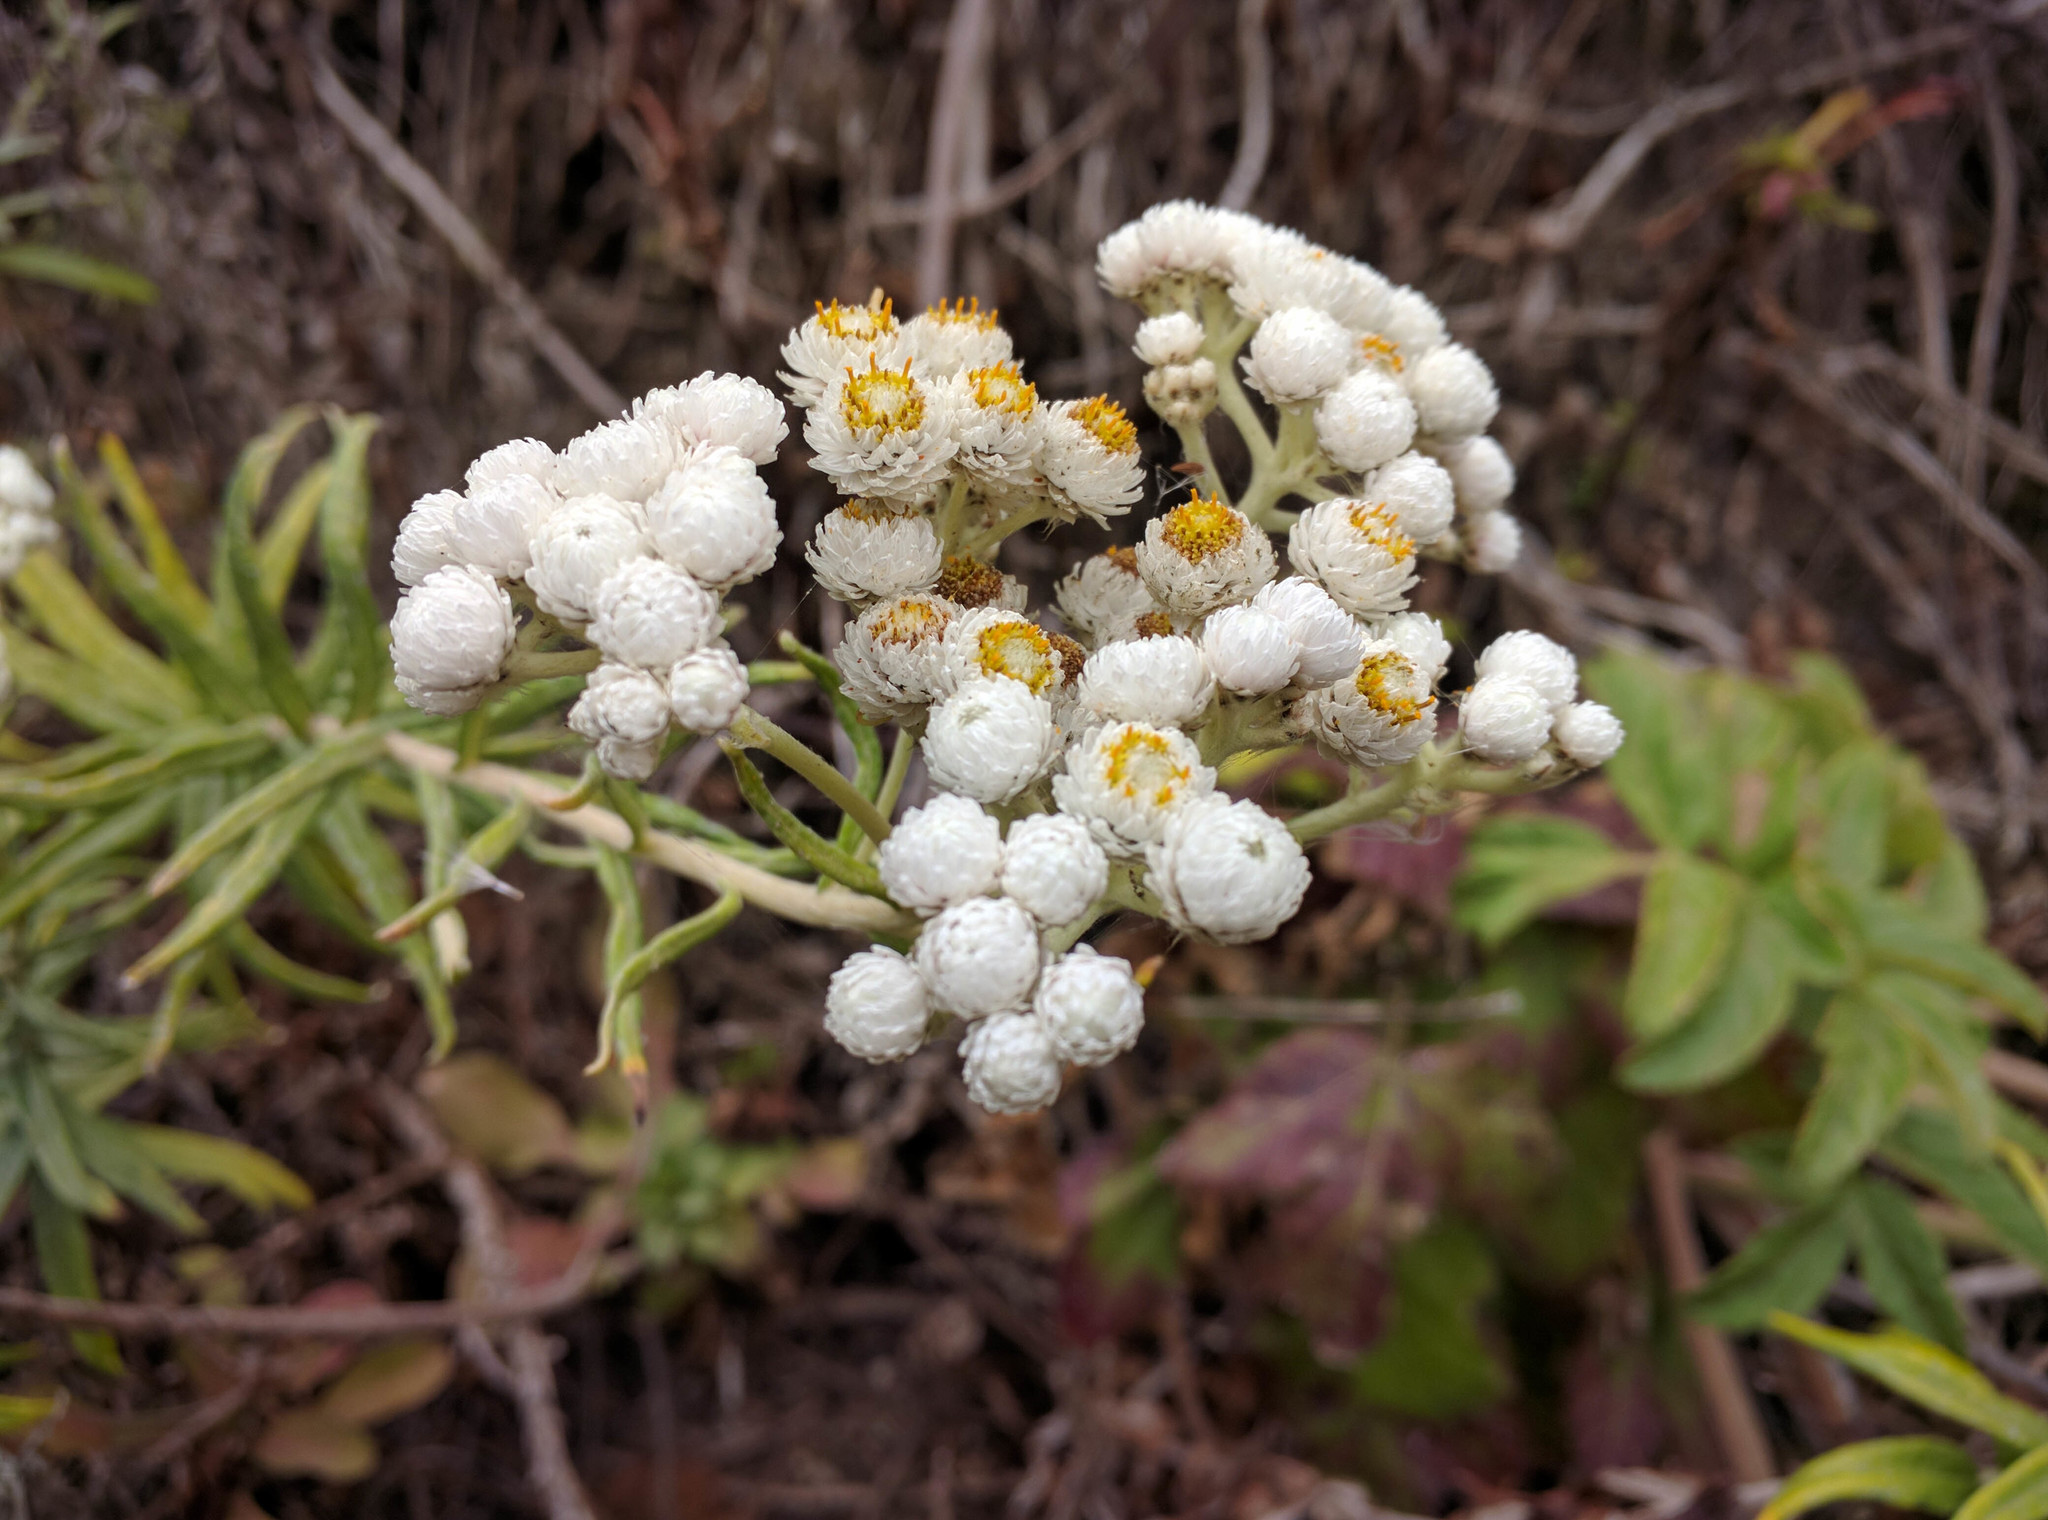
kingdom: Plantae
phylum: Tracheophyta
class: Magnoliopsida
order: Asterales
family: Asteraceae
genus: Anaphalis
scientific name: Anaphalis margaritacea
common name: Pearly everlasting
